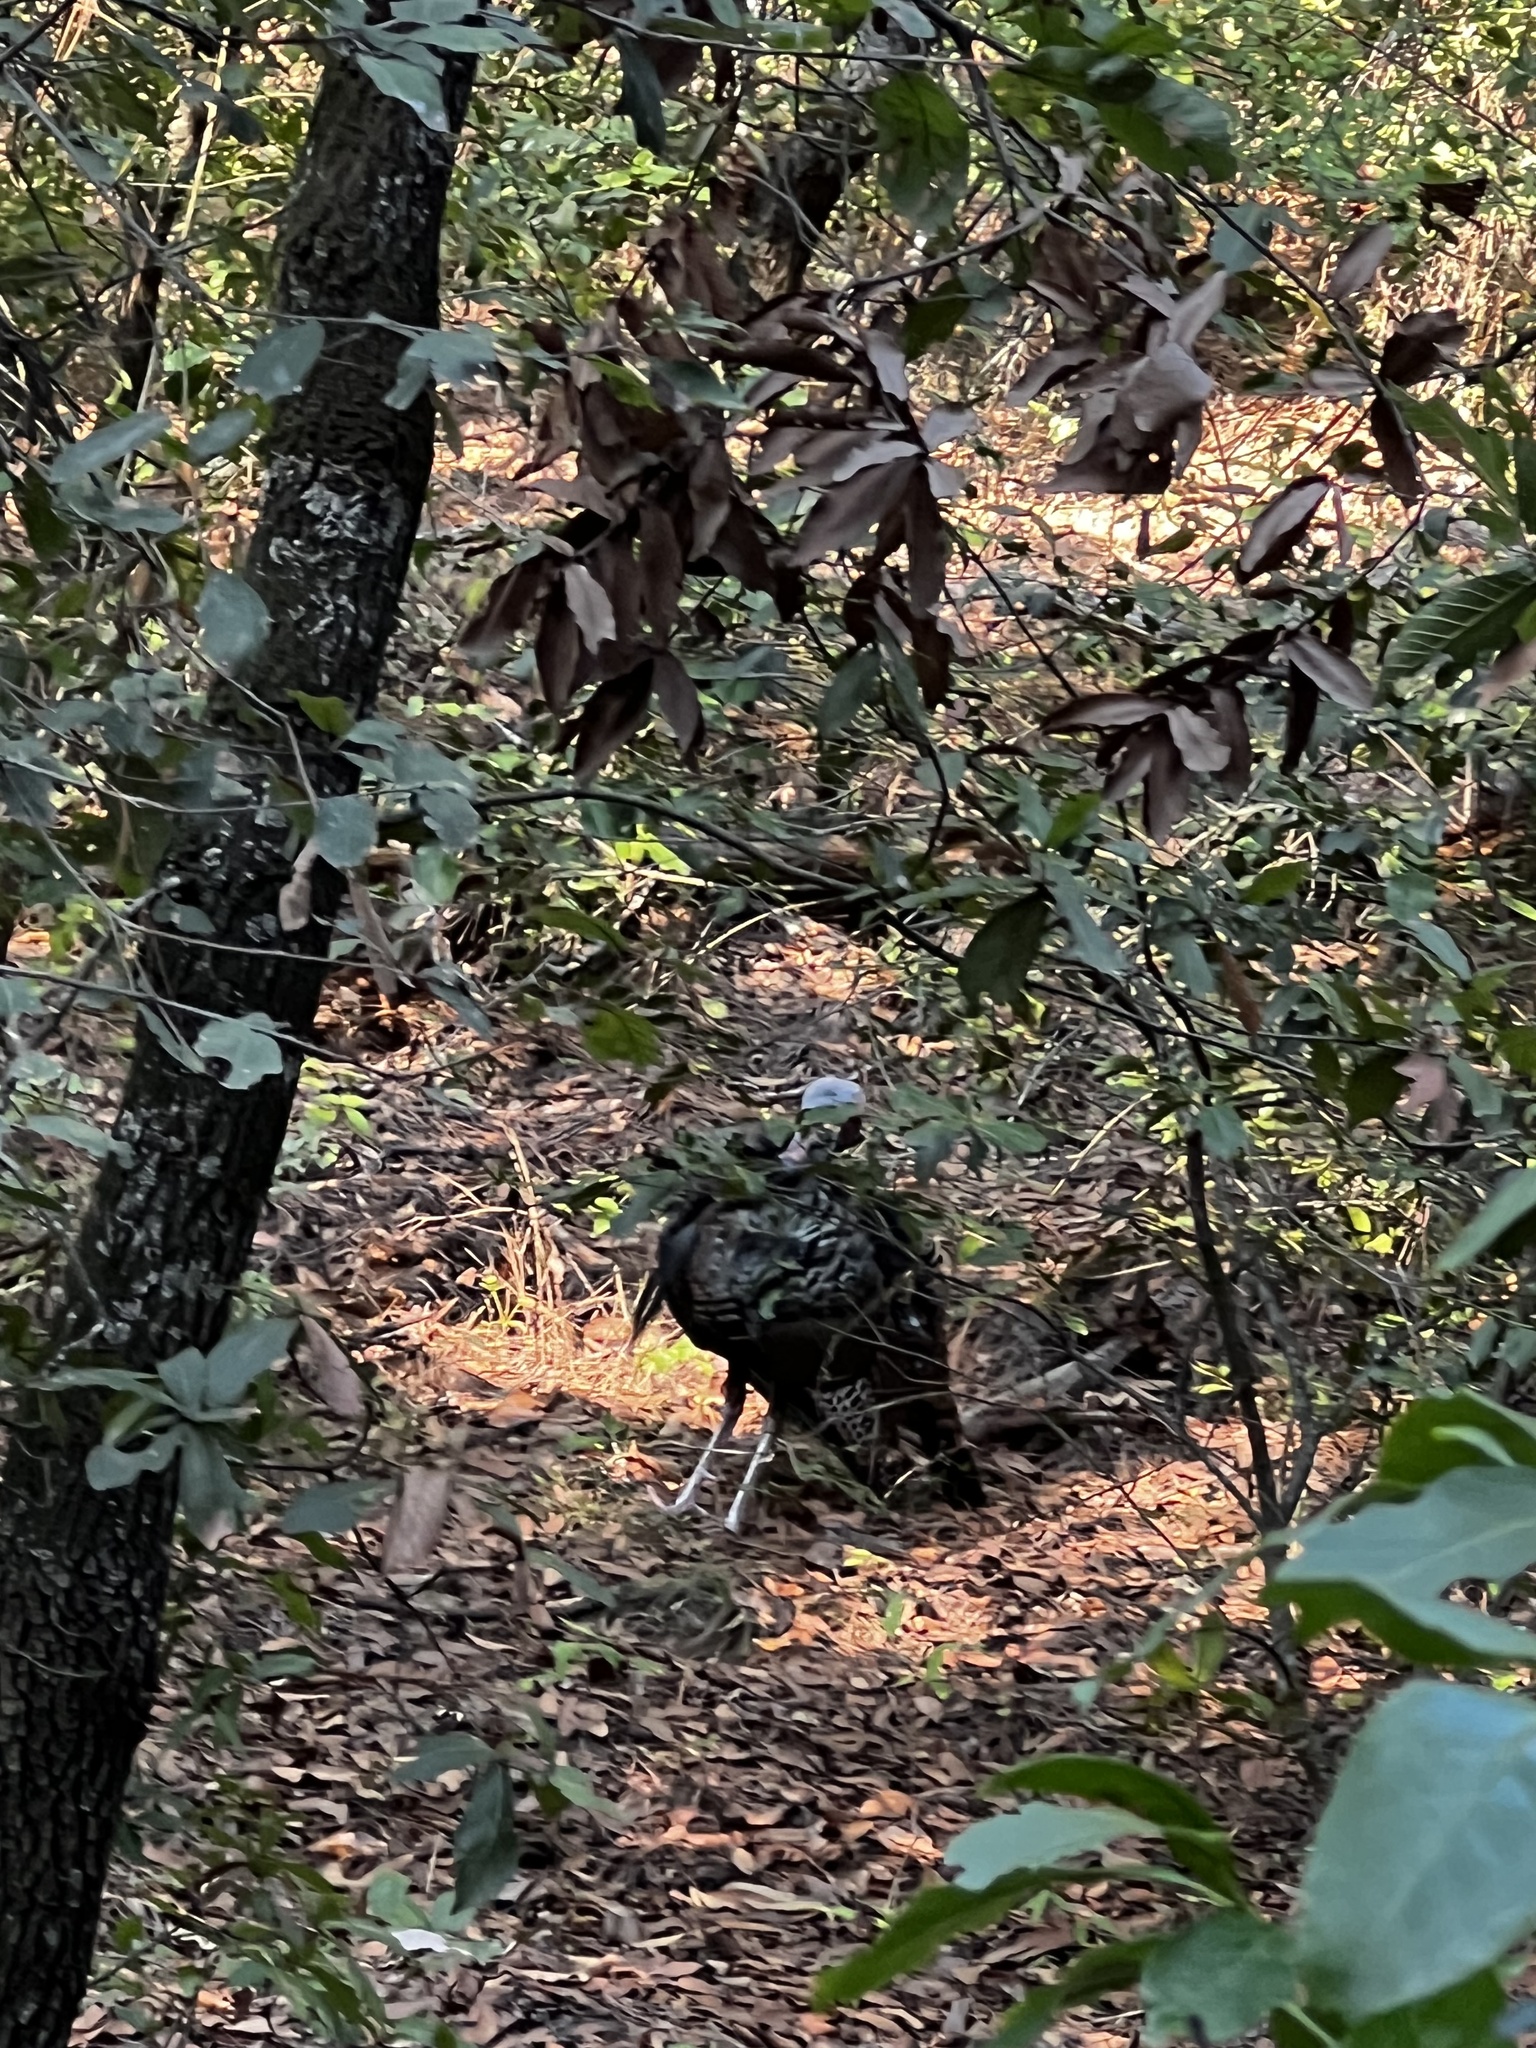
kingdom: Animalia
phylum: Chordata
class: Aves
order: Galliformes
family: Phasianidae
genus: Meleagris
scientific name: Meleagris gallopavo
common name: Wild turkey
